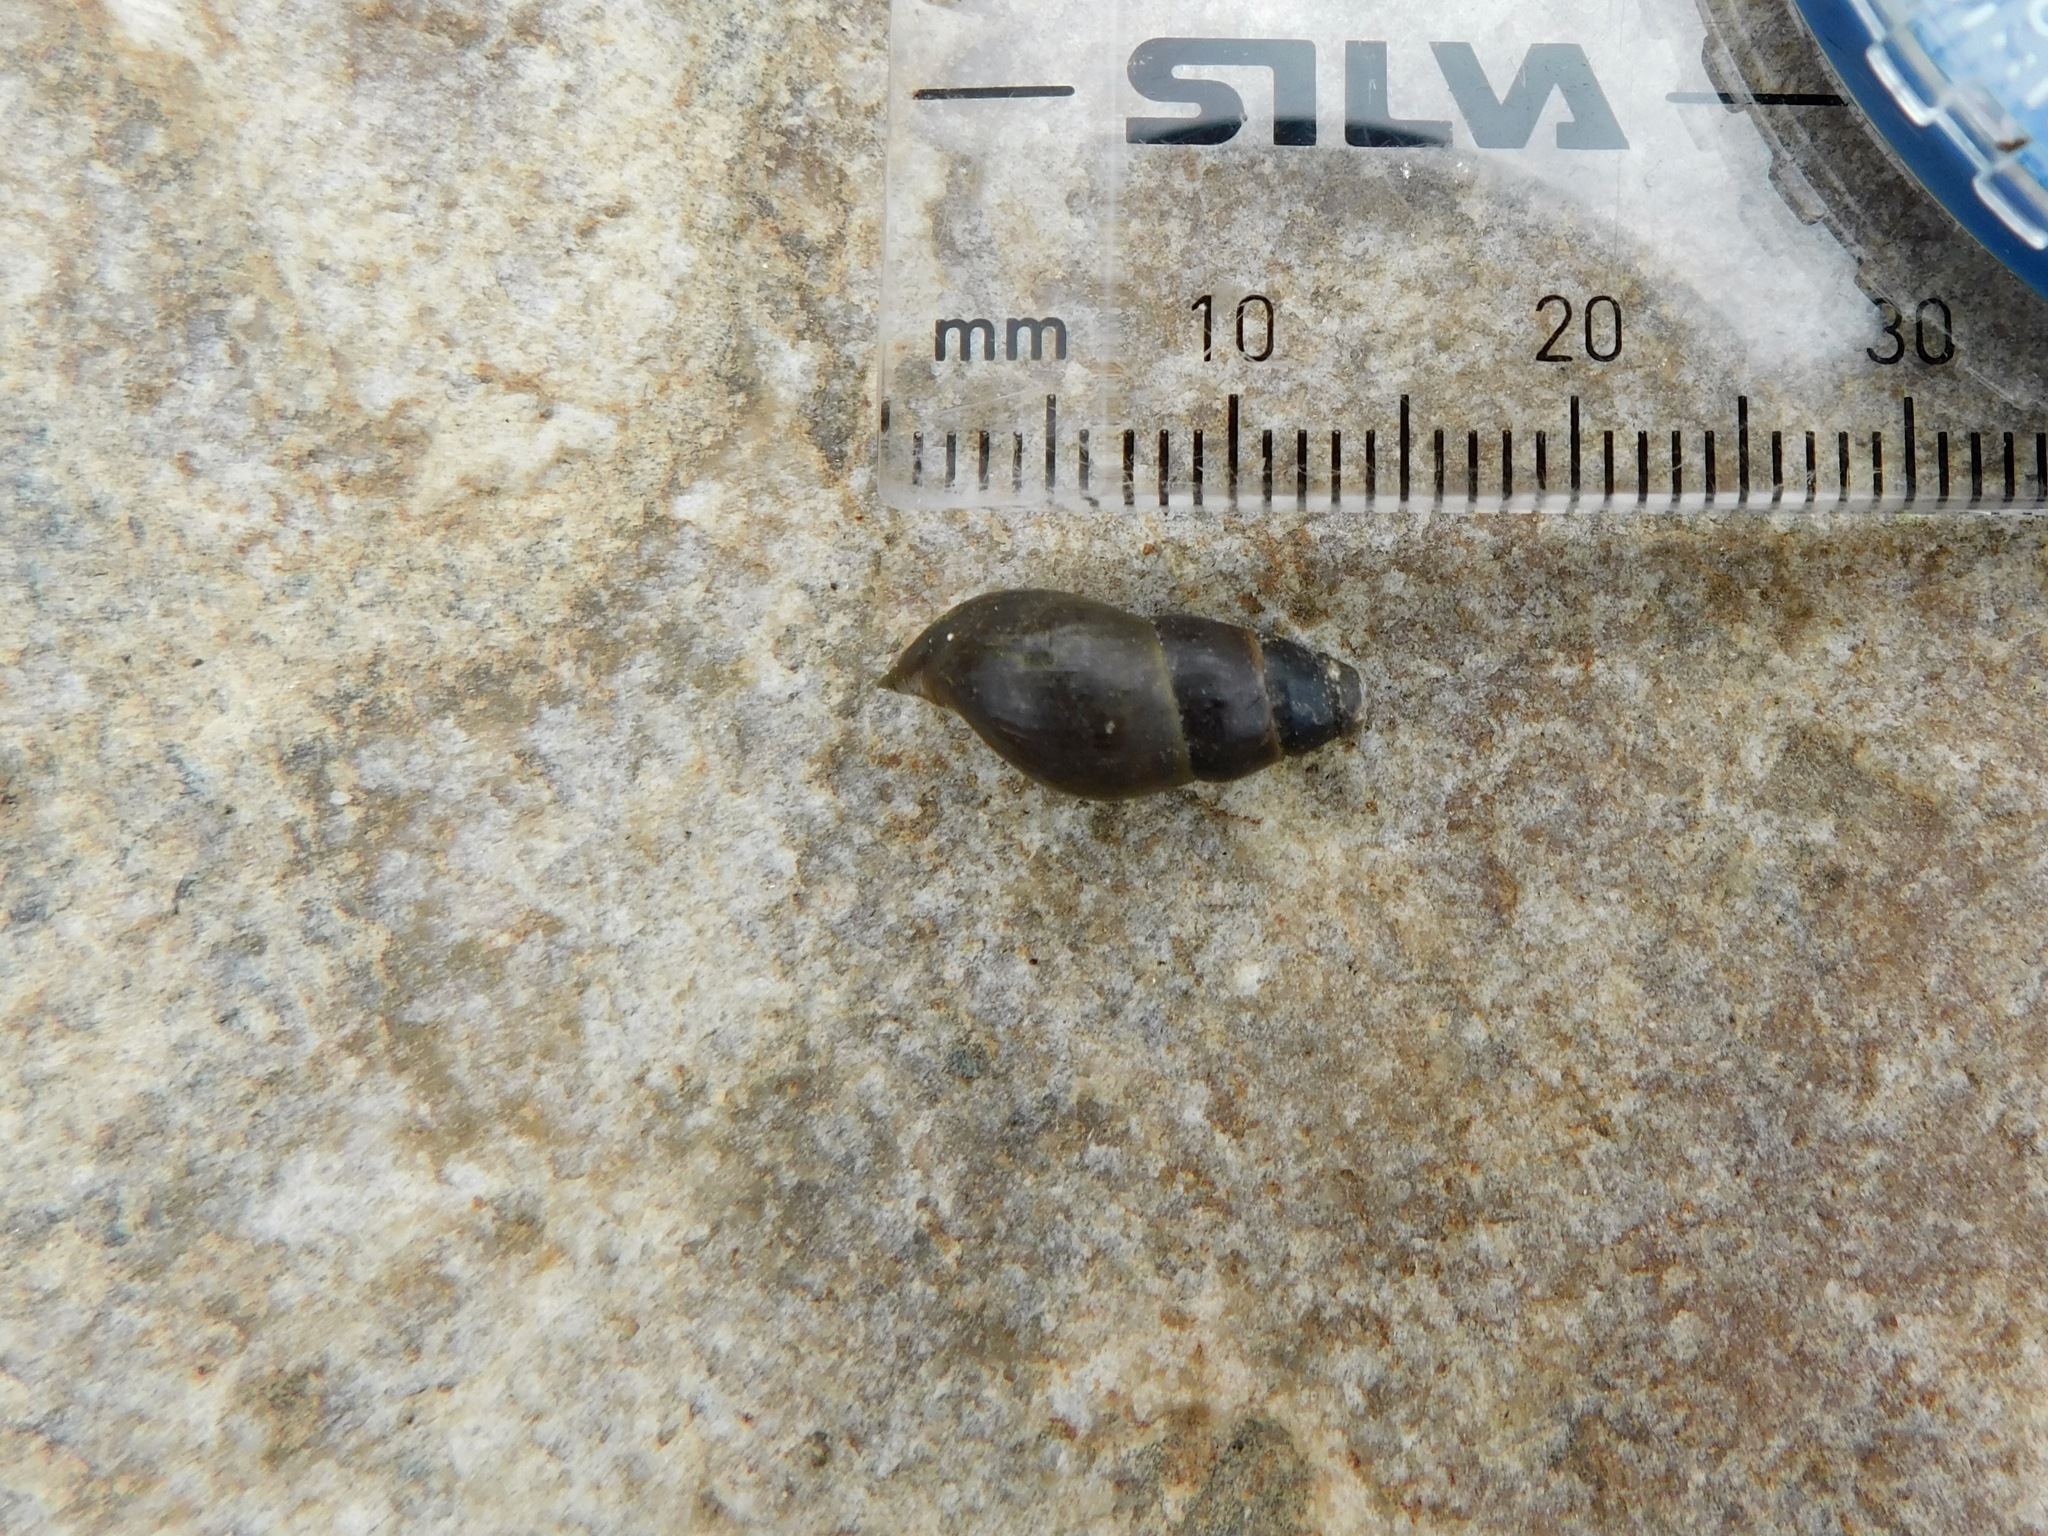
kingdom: Animalia
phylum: Mollusca
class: Gastropoda
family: Pleuroceridae
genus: Elimia
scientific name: Elimia simplex
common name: Smooth elimia
